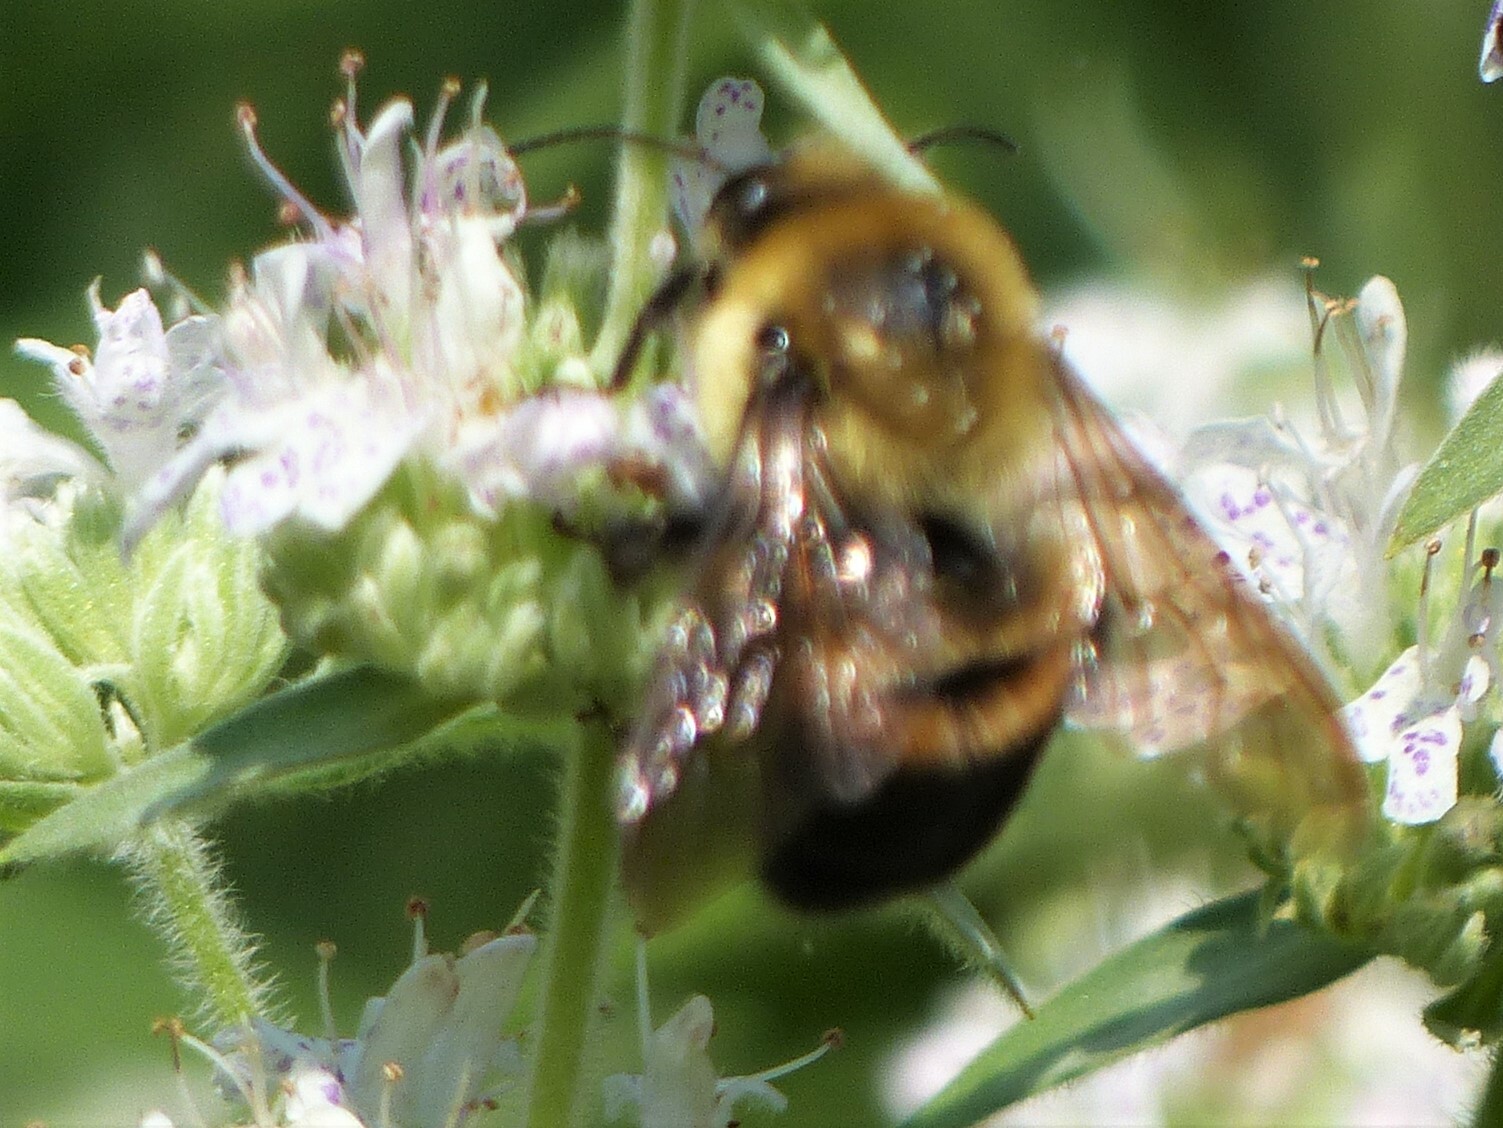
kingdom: Animalia
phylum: Arthropoda
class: Insecta
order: Hymenoptera
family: Apidae
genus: Bombus
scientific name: Bombus griseocollis
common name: Brown-belted bumble bee
